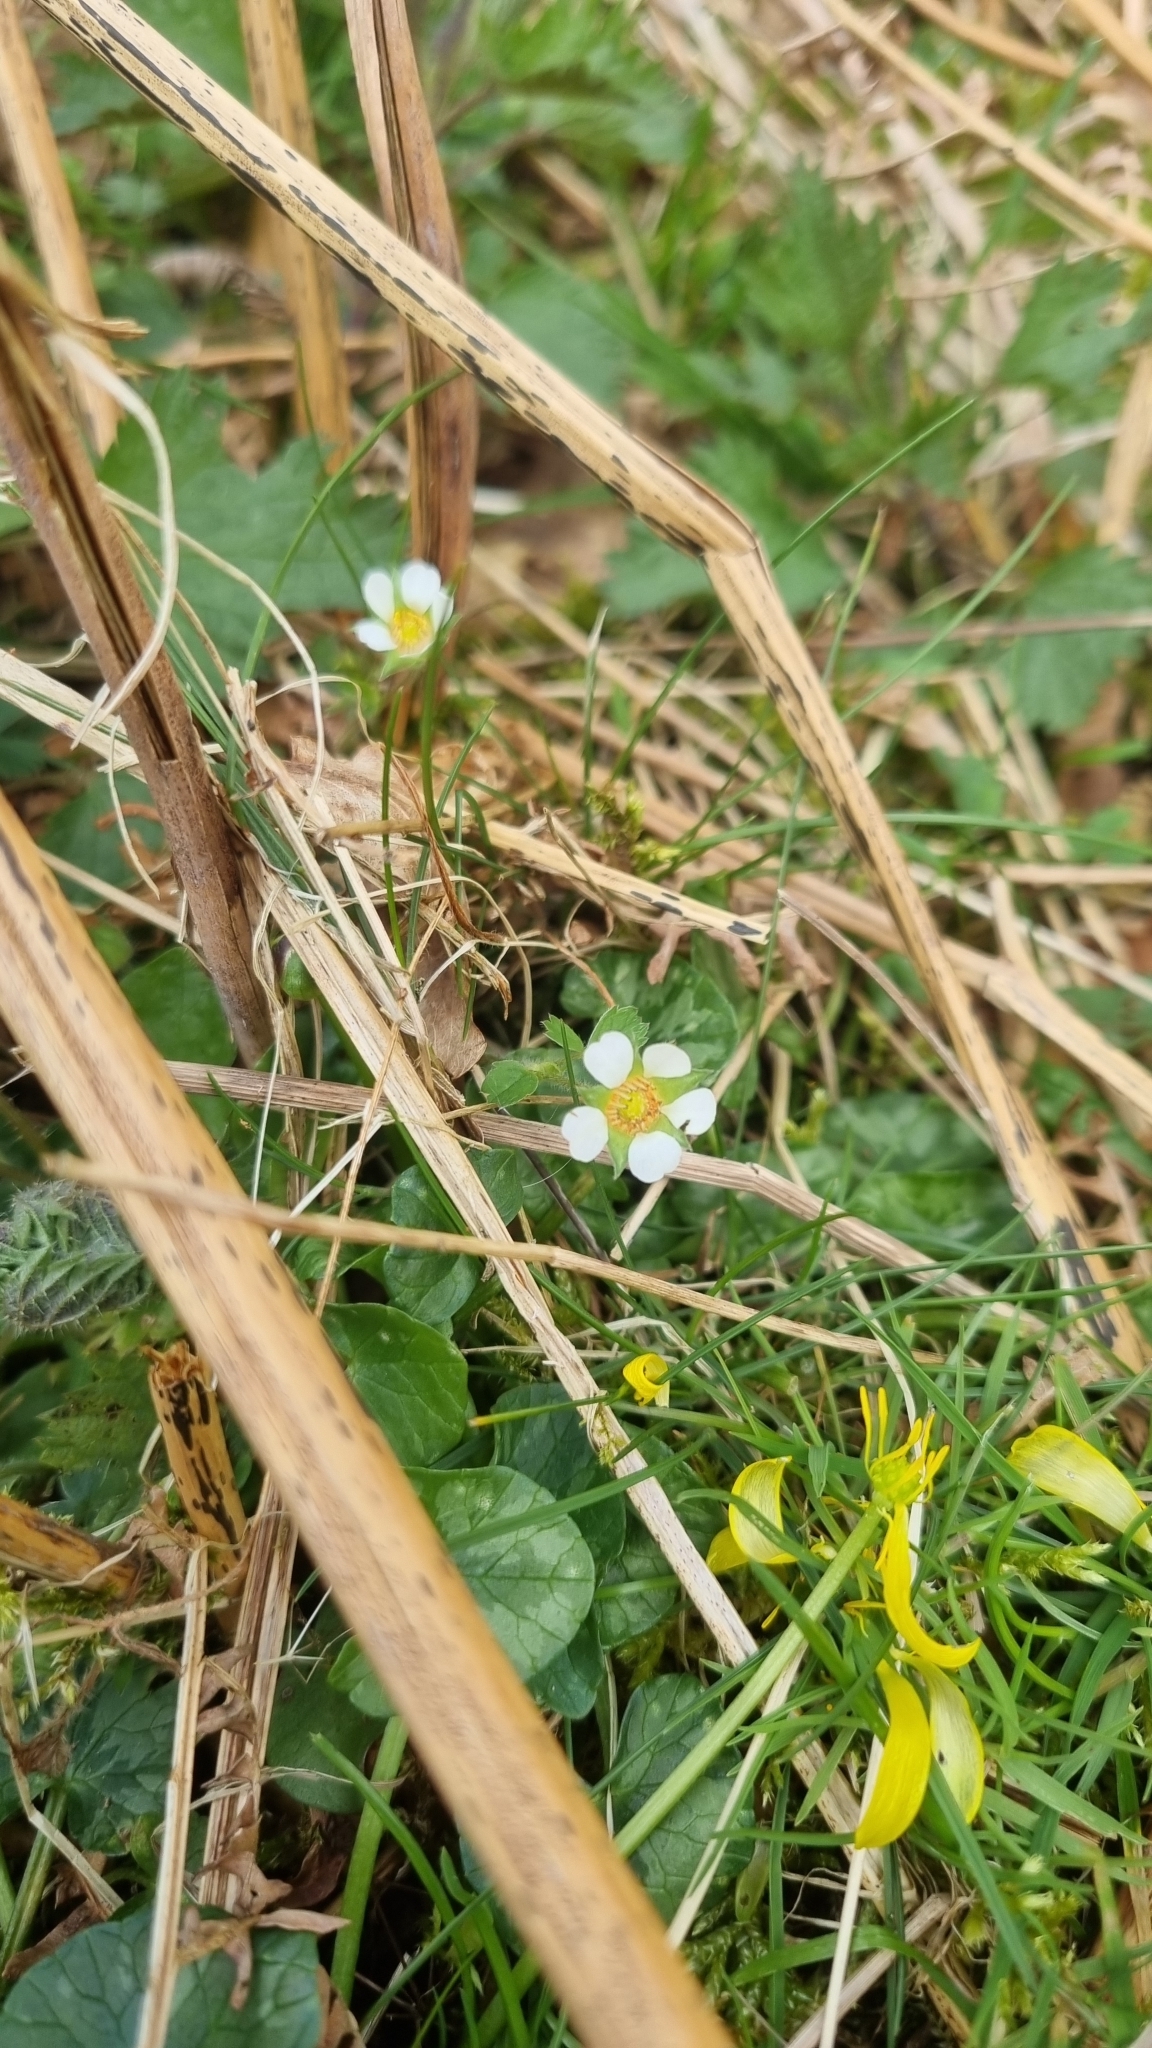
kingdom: Plantae
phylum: Tracheophyta
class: Magnoliopsida
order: Rosales
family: Rosaceae
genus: Potentilla
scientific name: Potentilla sterilis
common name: Barren strawberry
